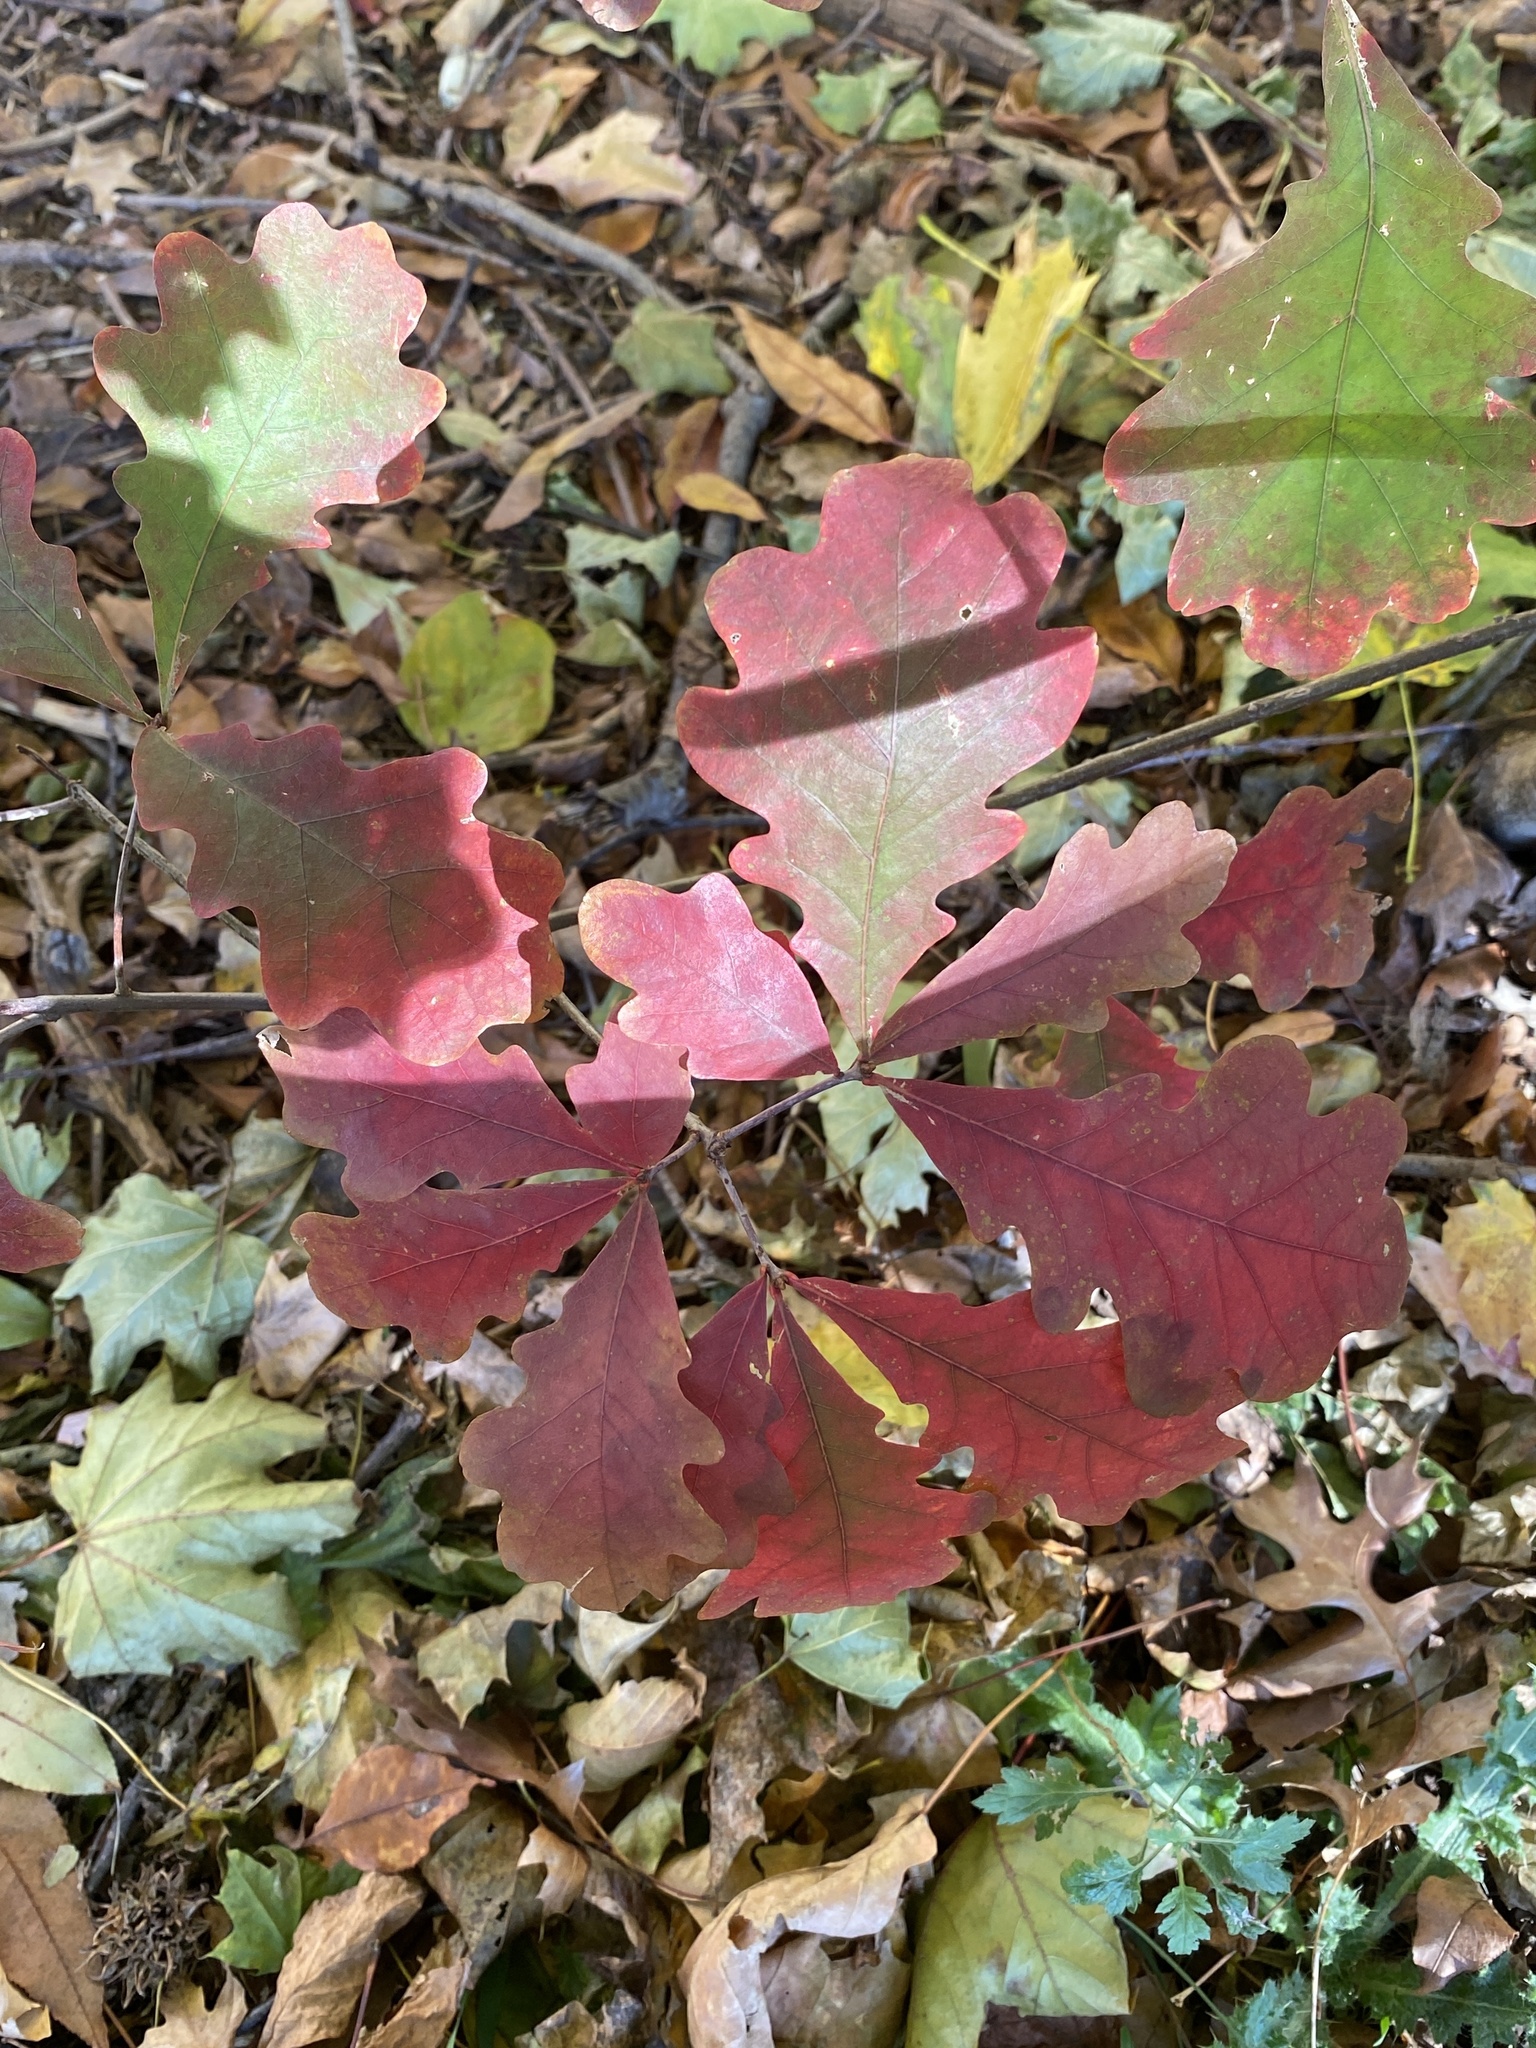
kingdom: Plantae
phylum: Tracheophyta
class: Magnoliopsida
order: Fagales
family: Fagaceae
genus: Quercus
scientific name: Quercus alba
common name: White oak
